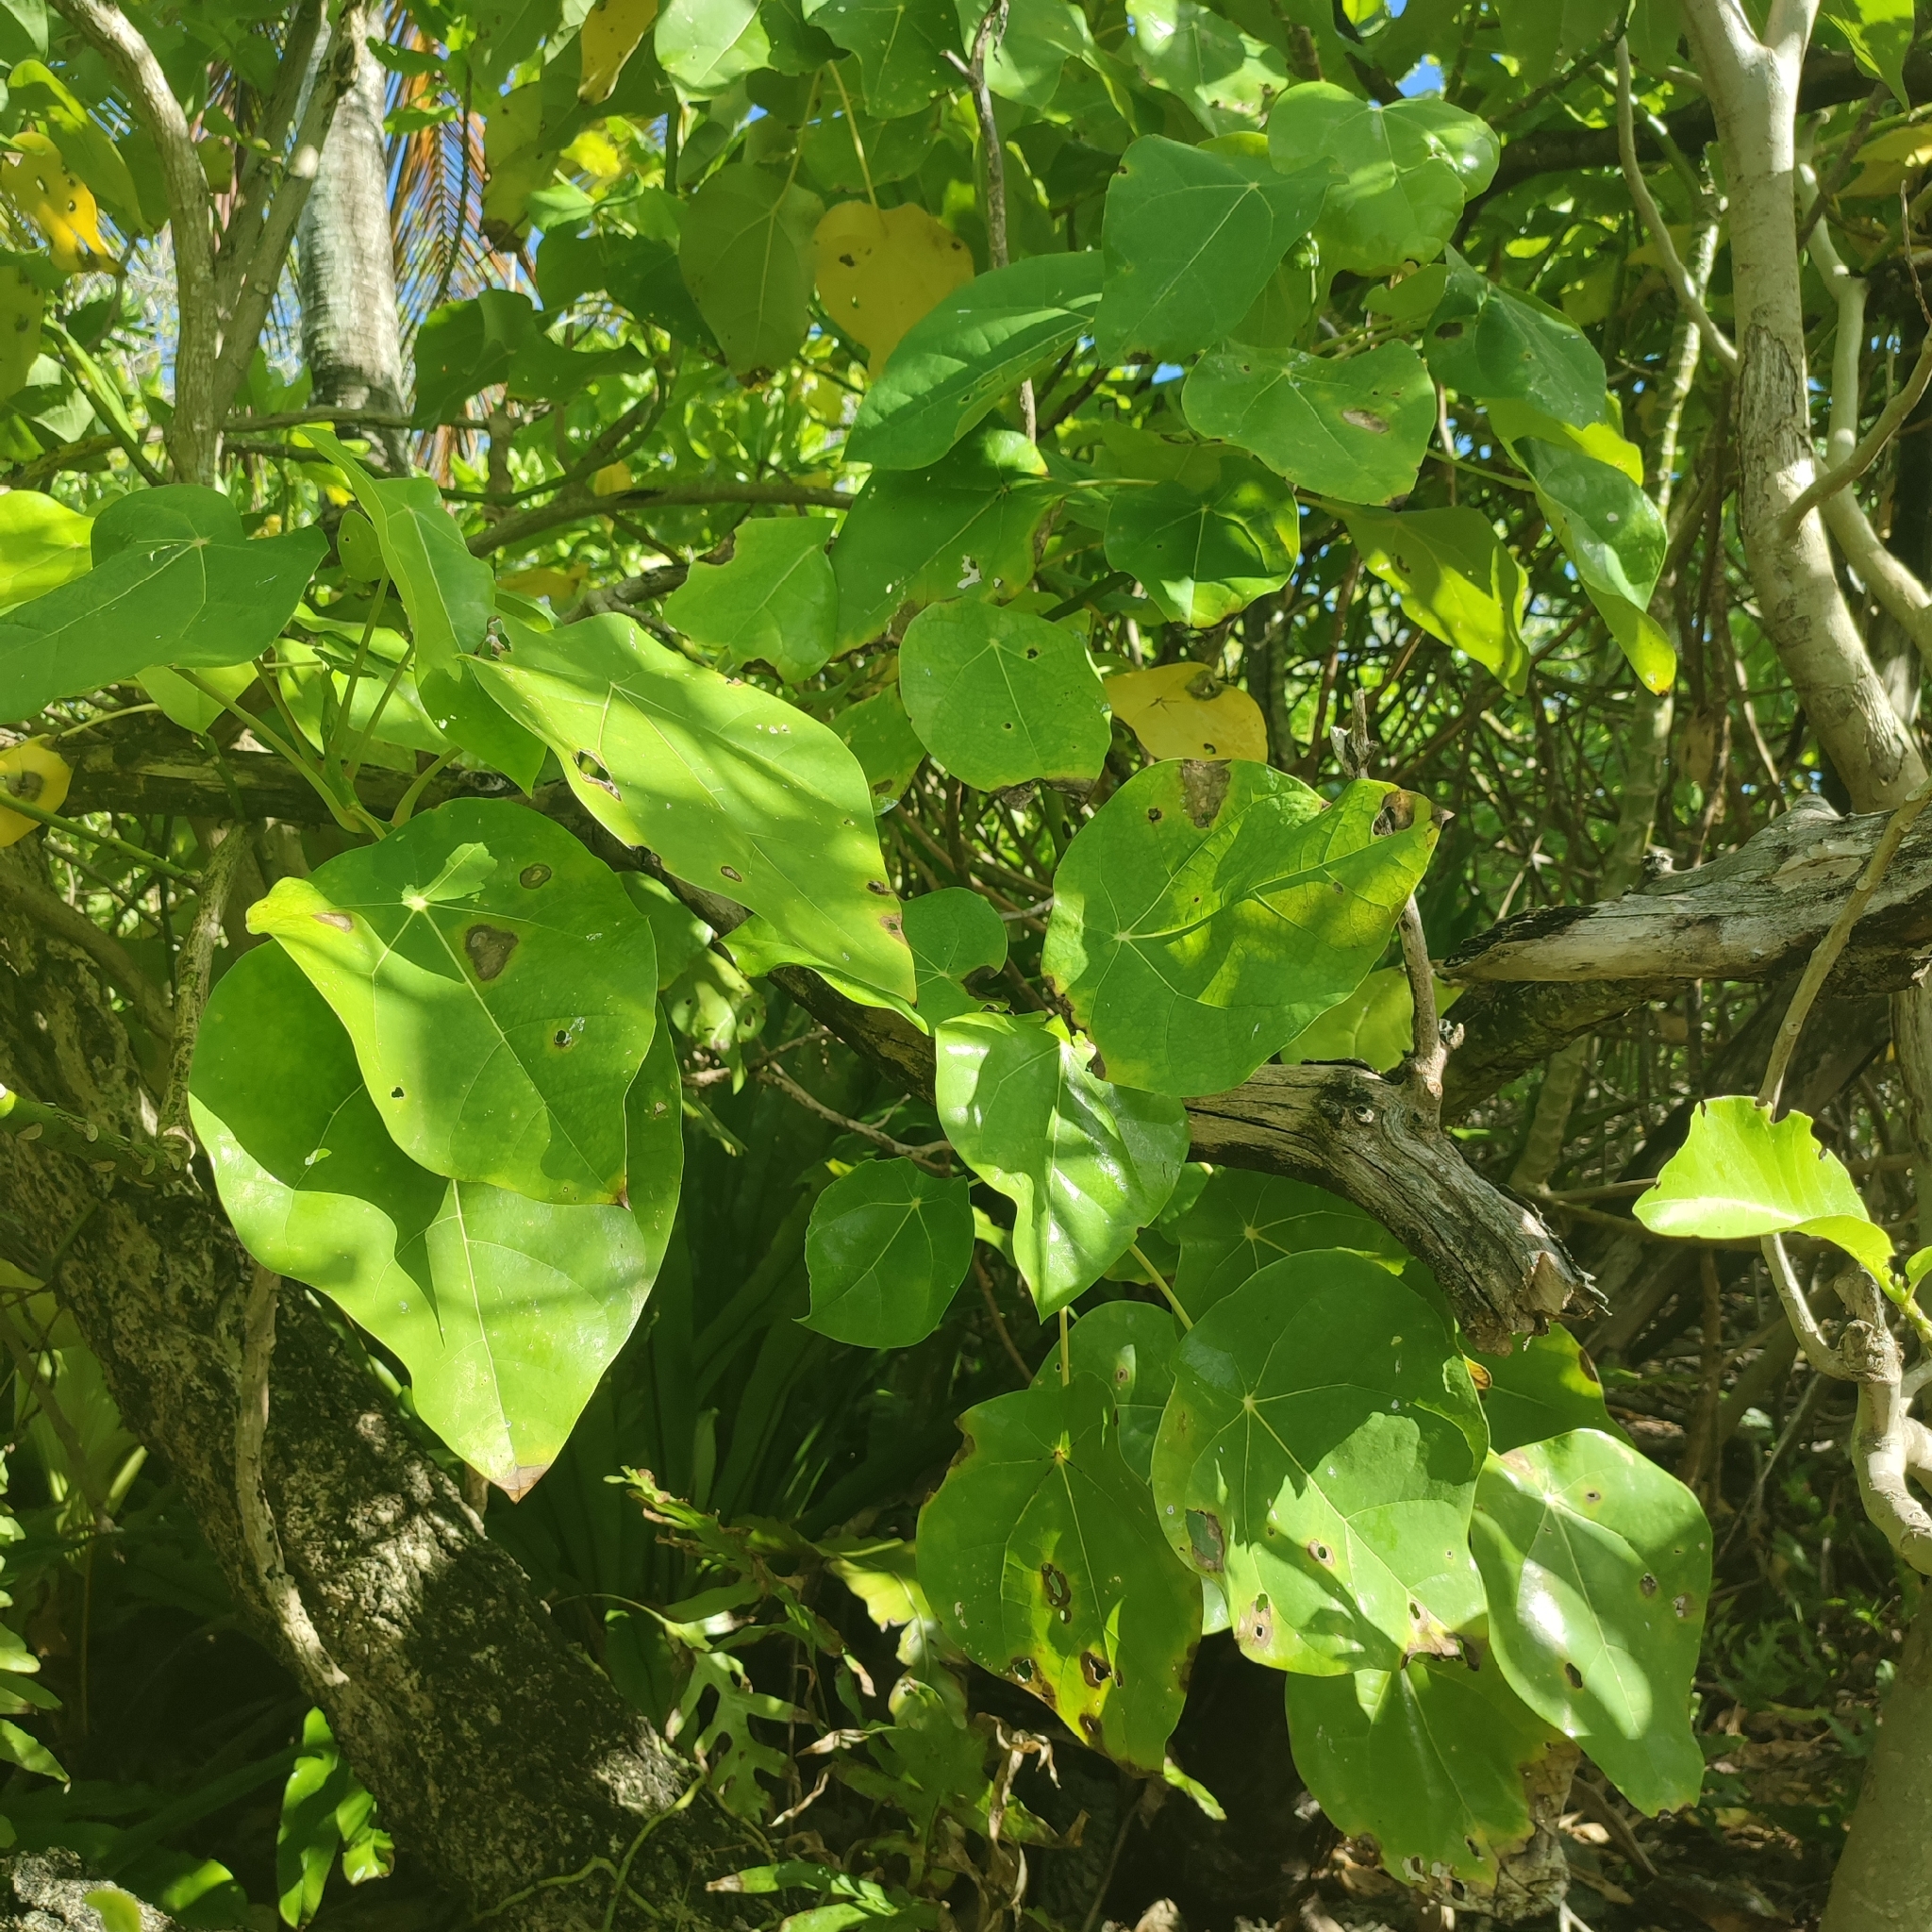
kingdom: Plantae
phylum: Tracheophyta
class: Magnoliopsida
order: Laurales
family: Hernandiaceae
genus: Hernandia
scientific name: Hernandia nymphaeifolia
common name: Sea hearse
